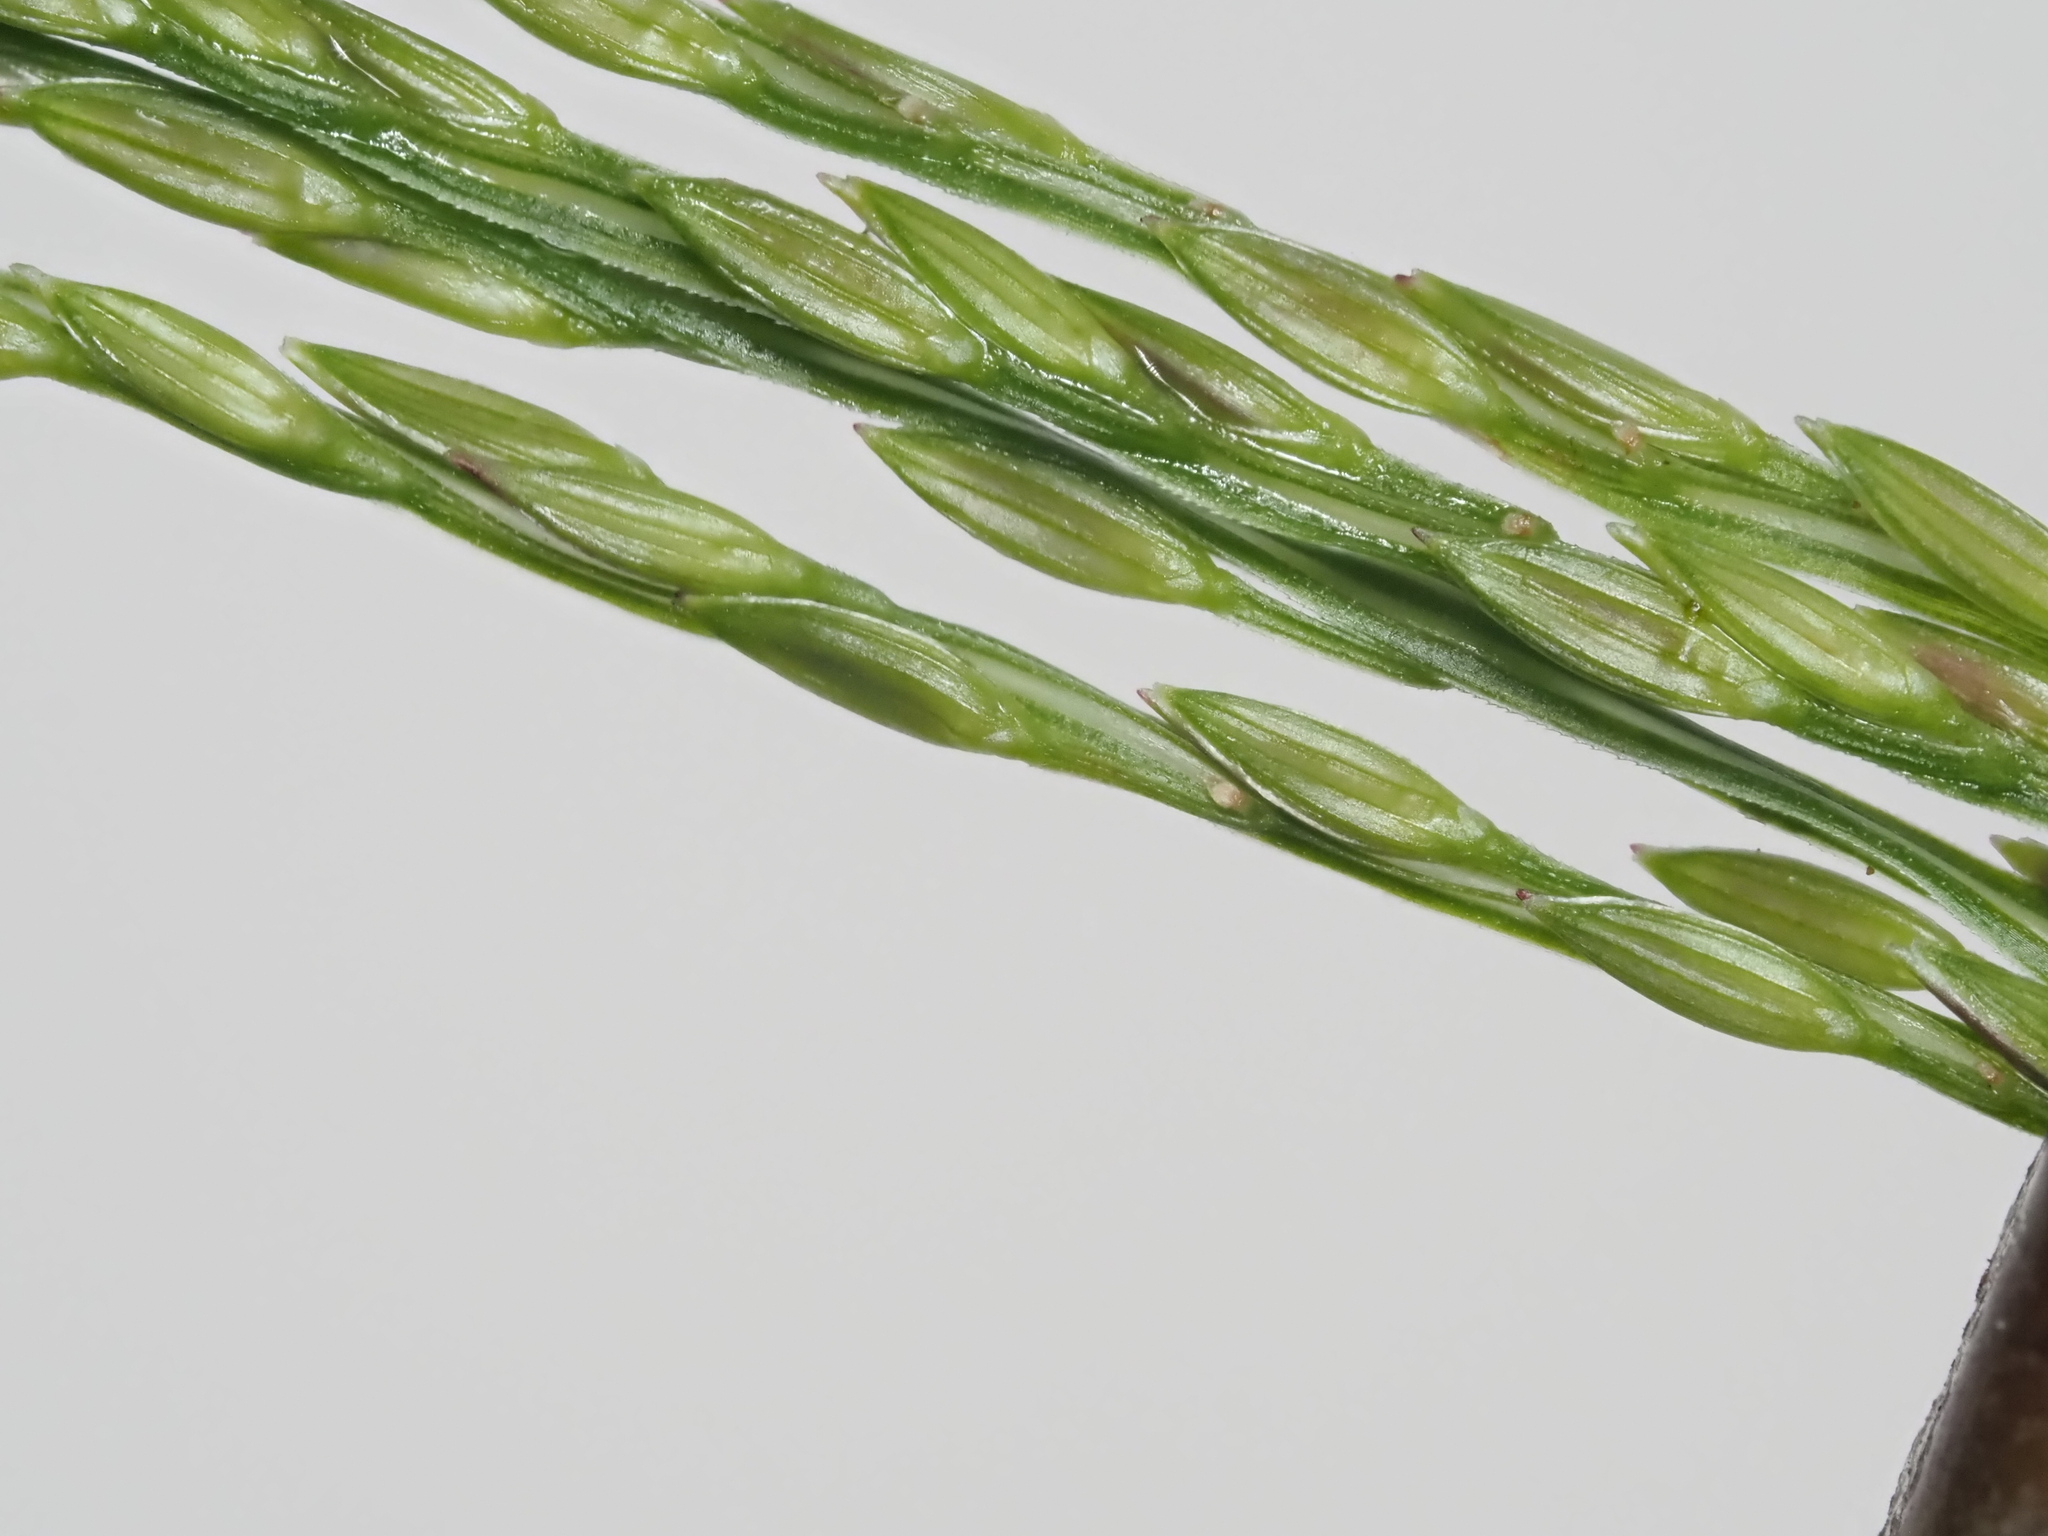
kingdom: Plantae
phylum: Tracheophyta
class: Liliopsida
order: Poales
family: Poaceae
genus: Digitaria
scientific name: Digitaria ciliaris
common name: Tropical finger-grass
